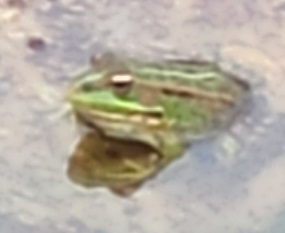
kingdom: Animalia
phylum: Chordata
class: Amphibia
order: Anura
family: Ranidae
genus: Pelophylax
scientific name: Pelophylax perezi
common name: Perez's frog
